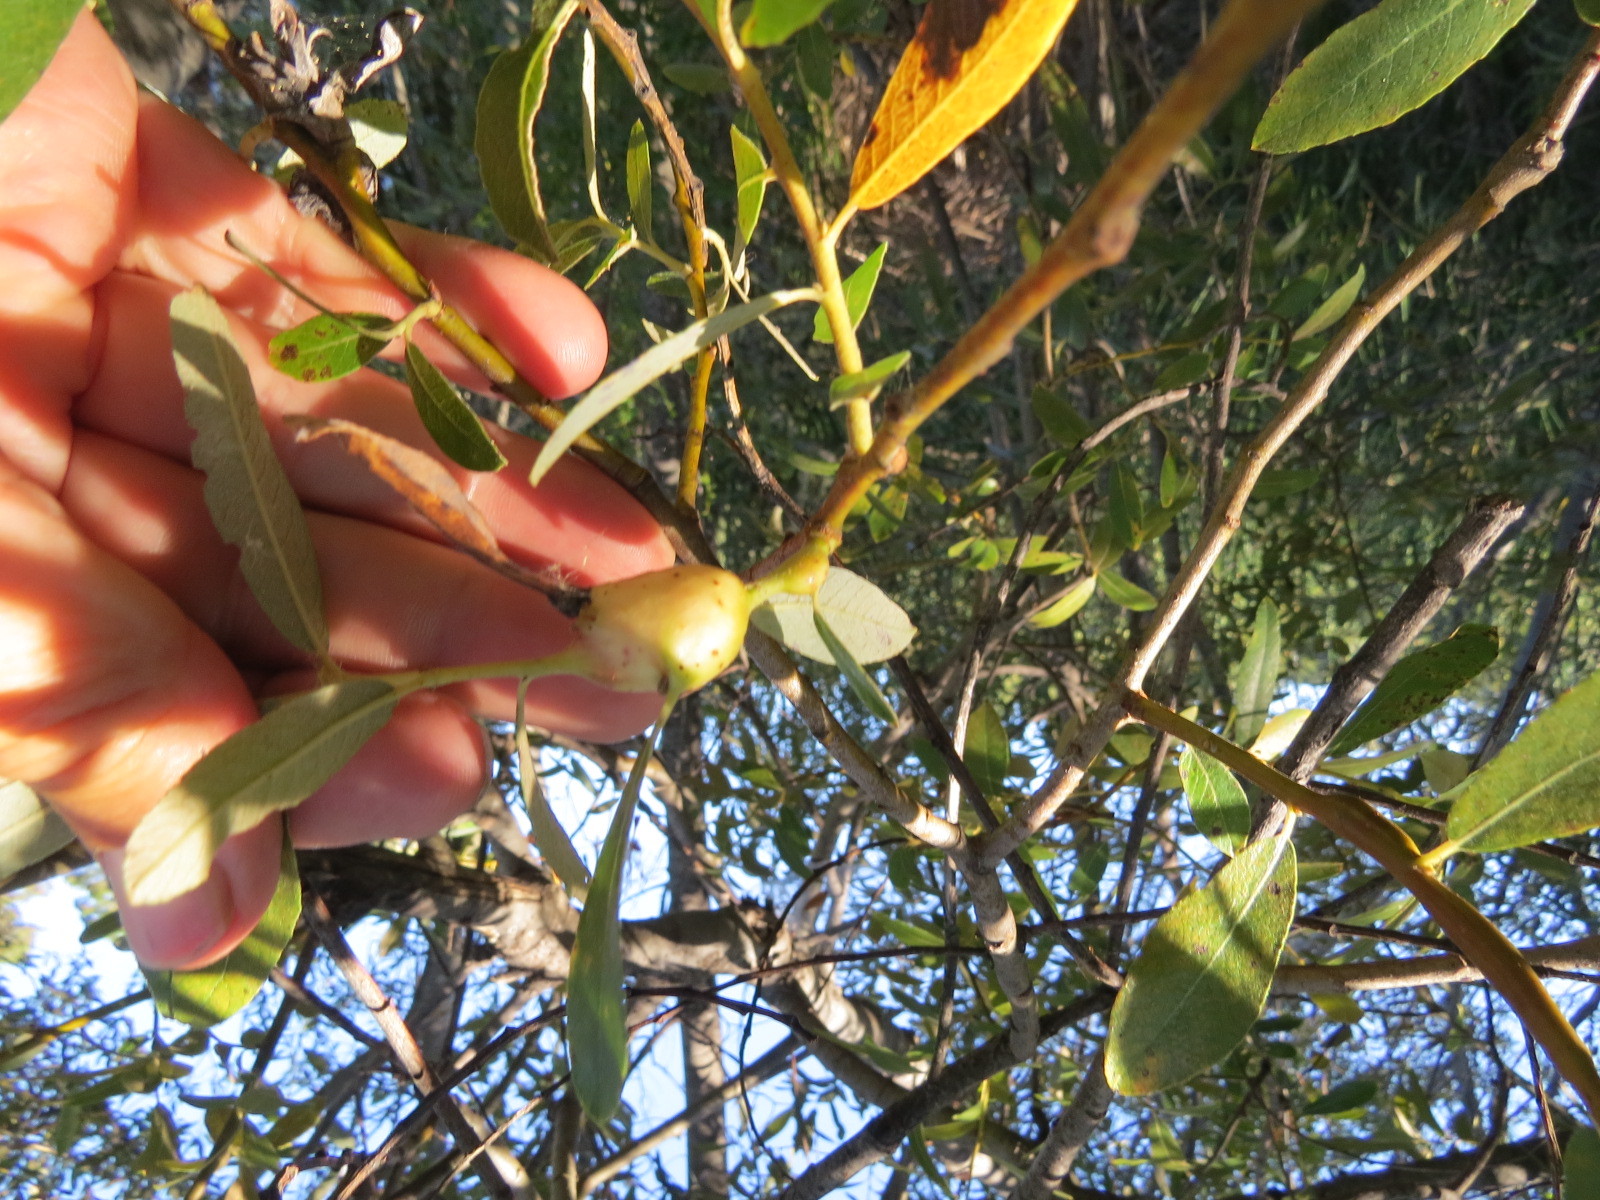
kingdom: Animalia
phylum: Arthropoda
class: Insecta
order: Diptera
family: Cecidomyiidae
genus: Rabdophaga
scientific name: Rabdophaga salicisbatatas
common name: Potato gall midge
